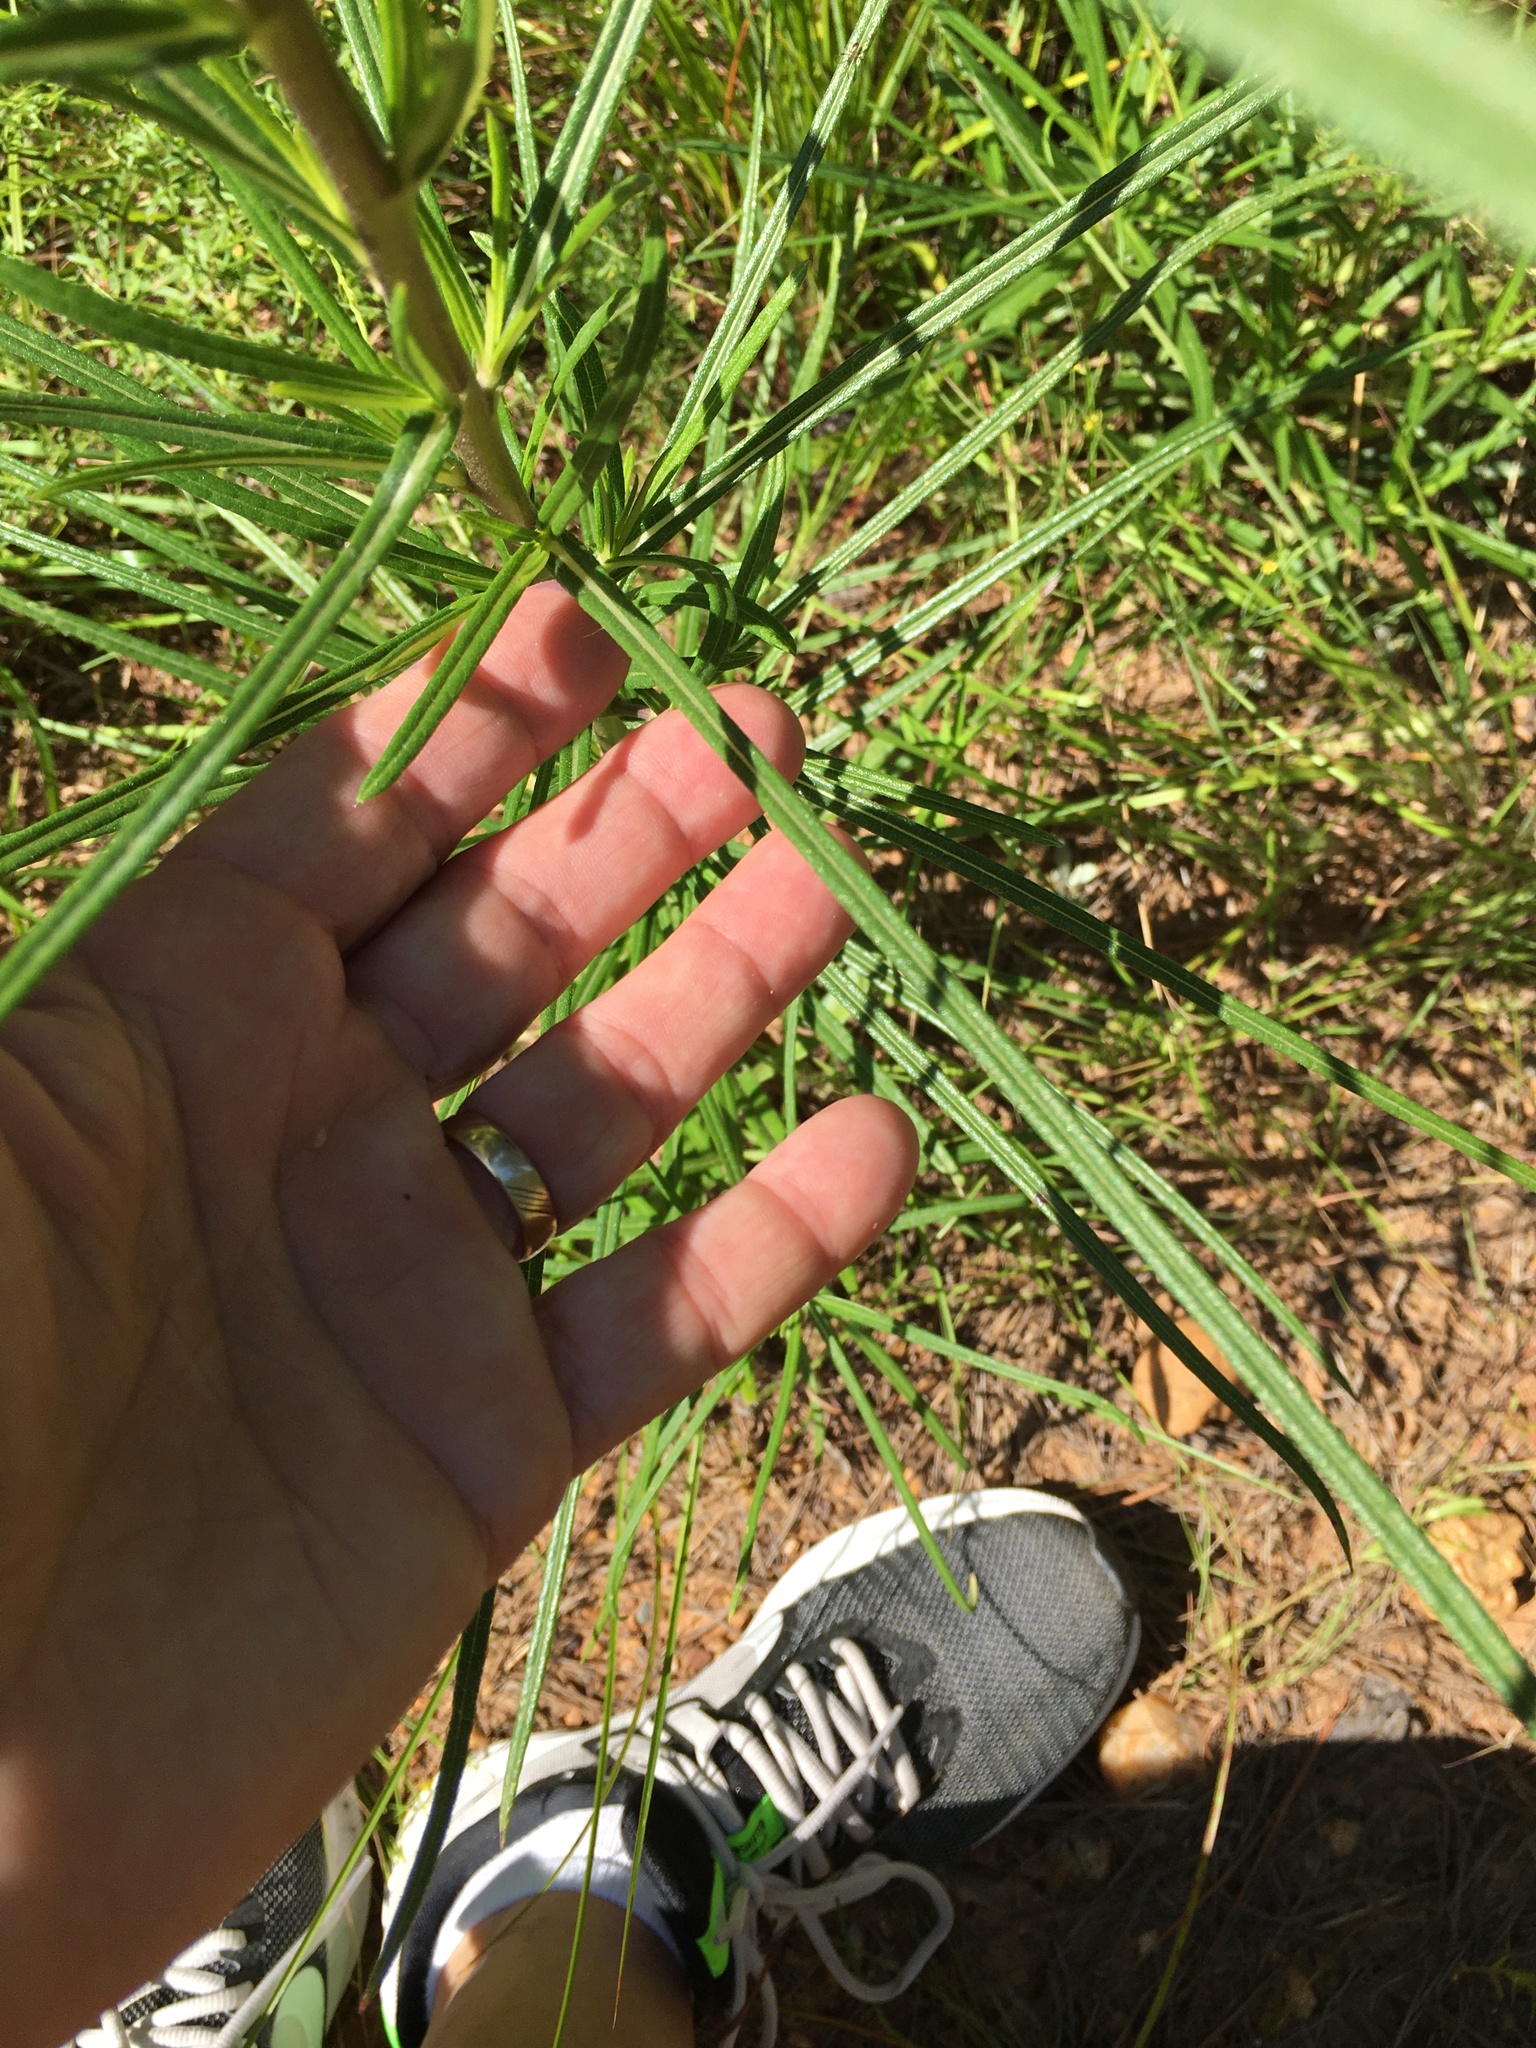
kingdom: Plantae
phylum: Tracheophyta
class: Magnoliopsida
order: Asterales
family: Asteraceae
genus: Helianthus
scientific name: Helianthus angustifolius
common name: Swamp sunflower
